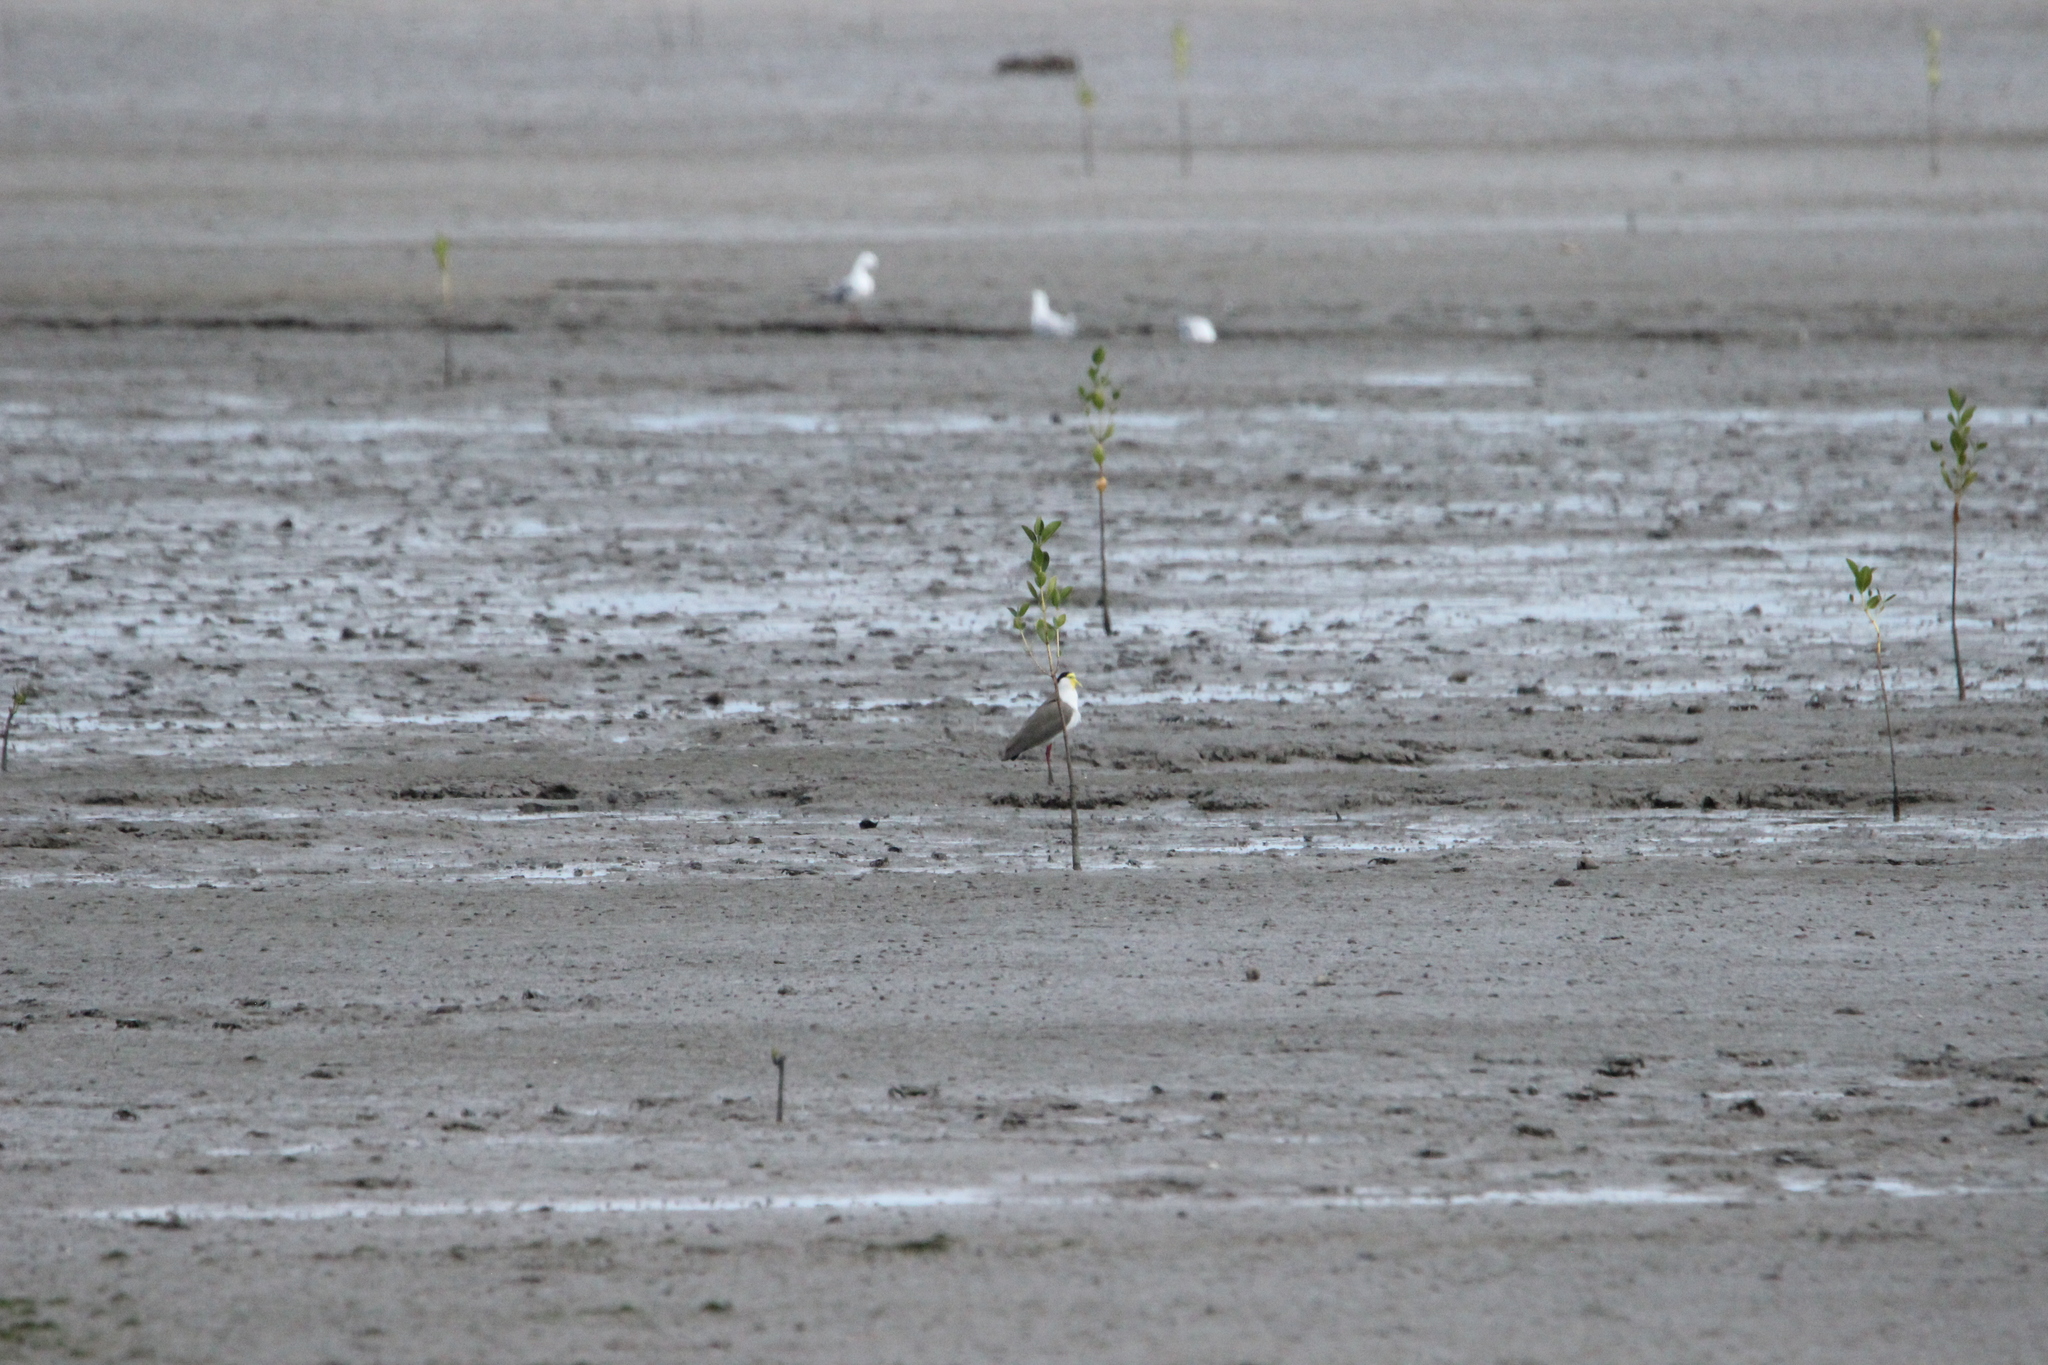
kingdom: Animalia
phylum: Chordata
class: Aves
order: Charadriiformes
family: Charadriidae
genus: Vanellus
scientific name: Vanellus miles
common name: Masked lapwing
